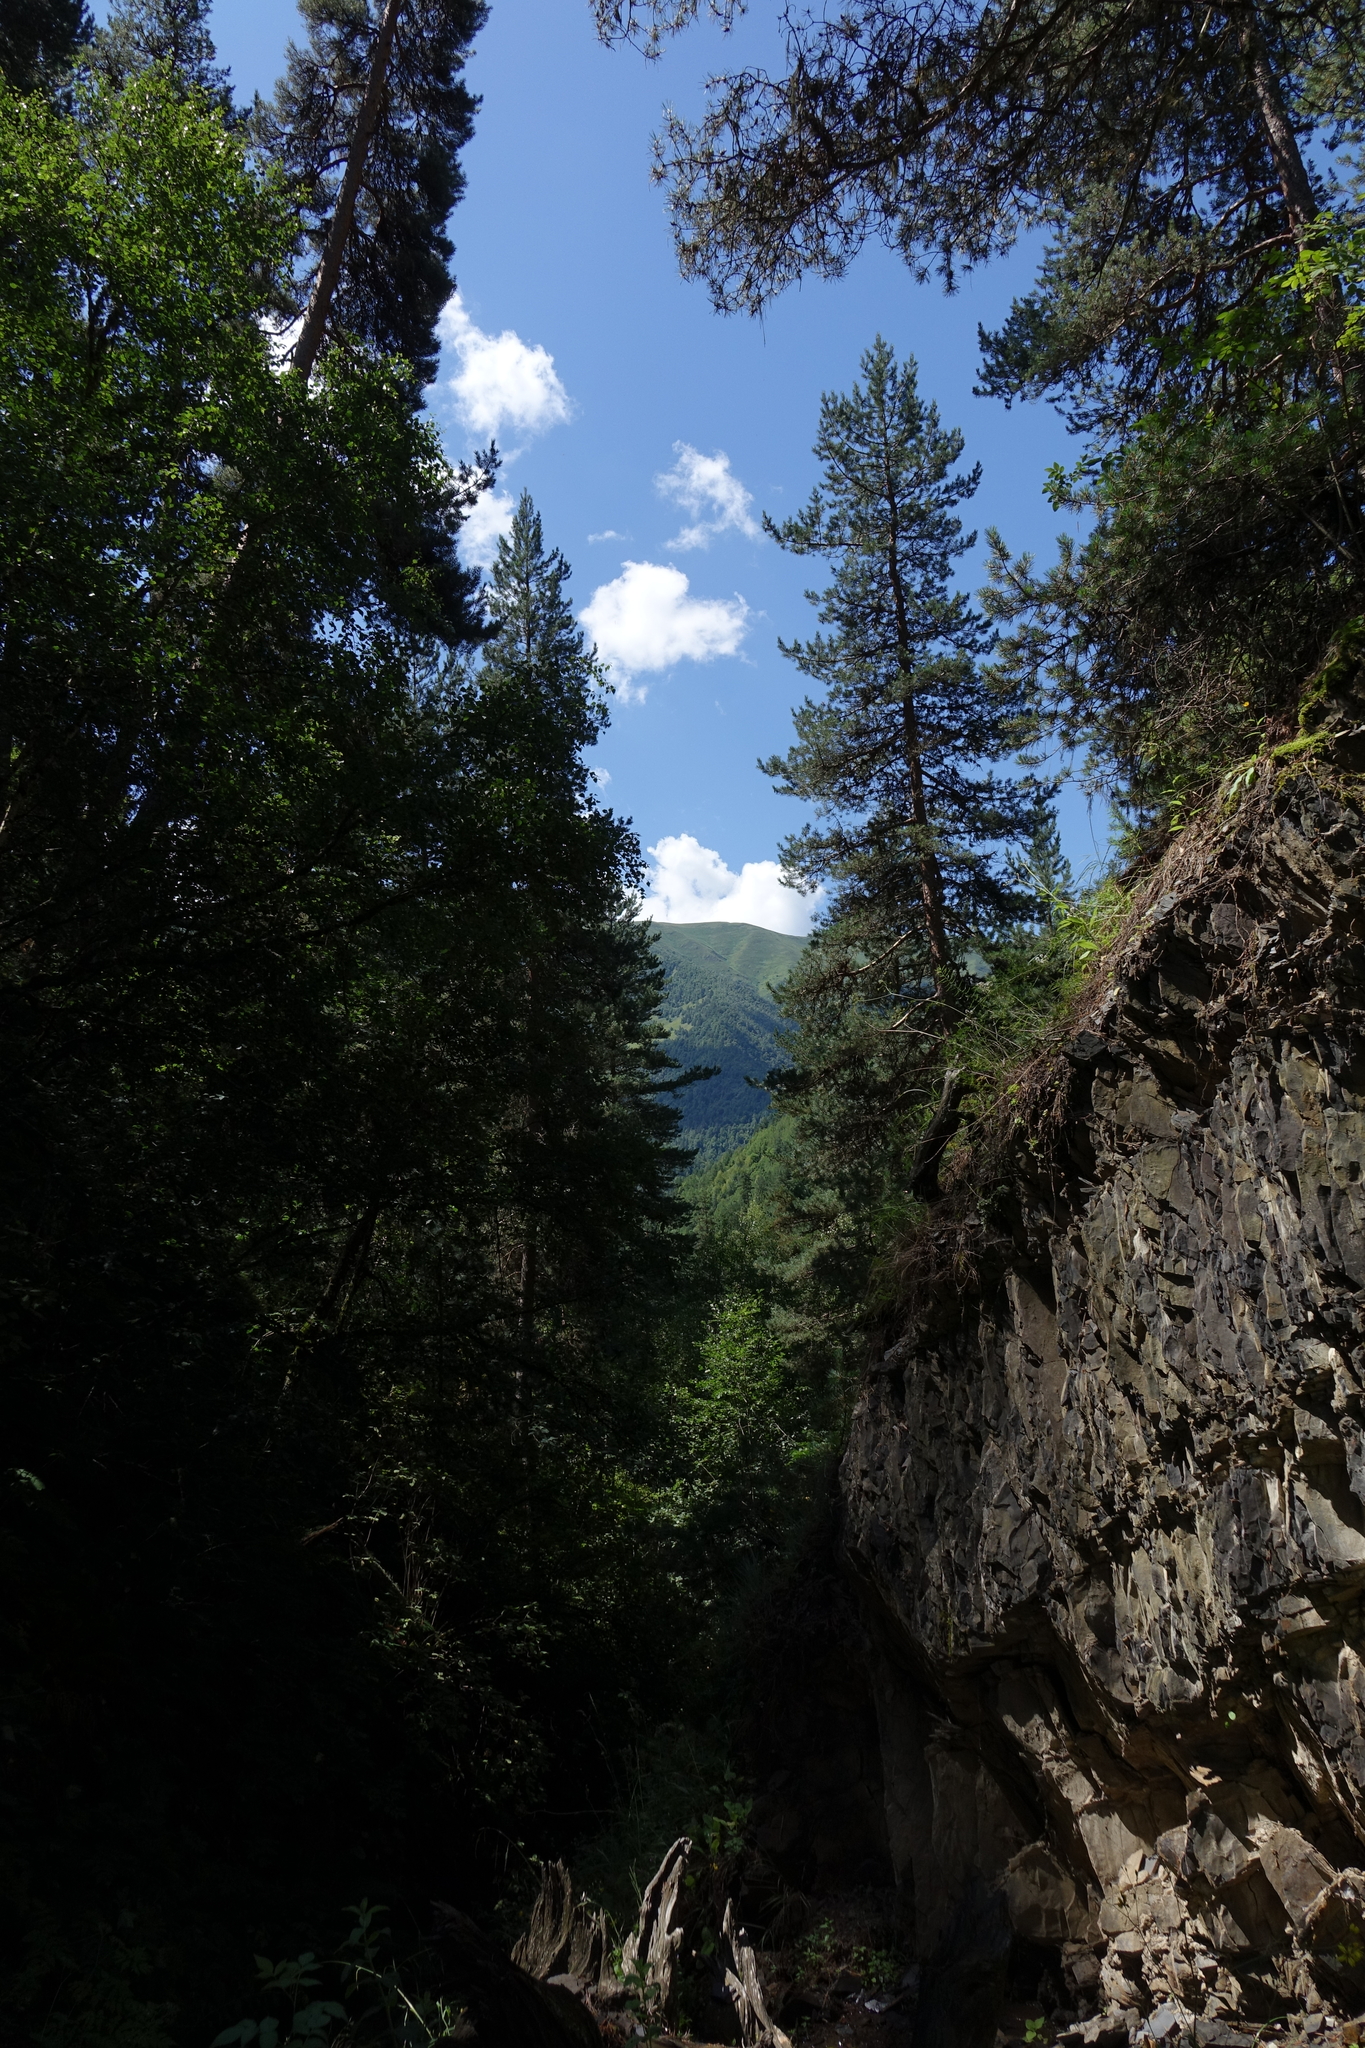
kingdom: Plantae
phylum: Tracheophyta
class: Pinopsida
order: Pinales
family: Pinaceae
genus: Pinus
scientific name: Pinus sylvestris
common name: Scots pine
